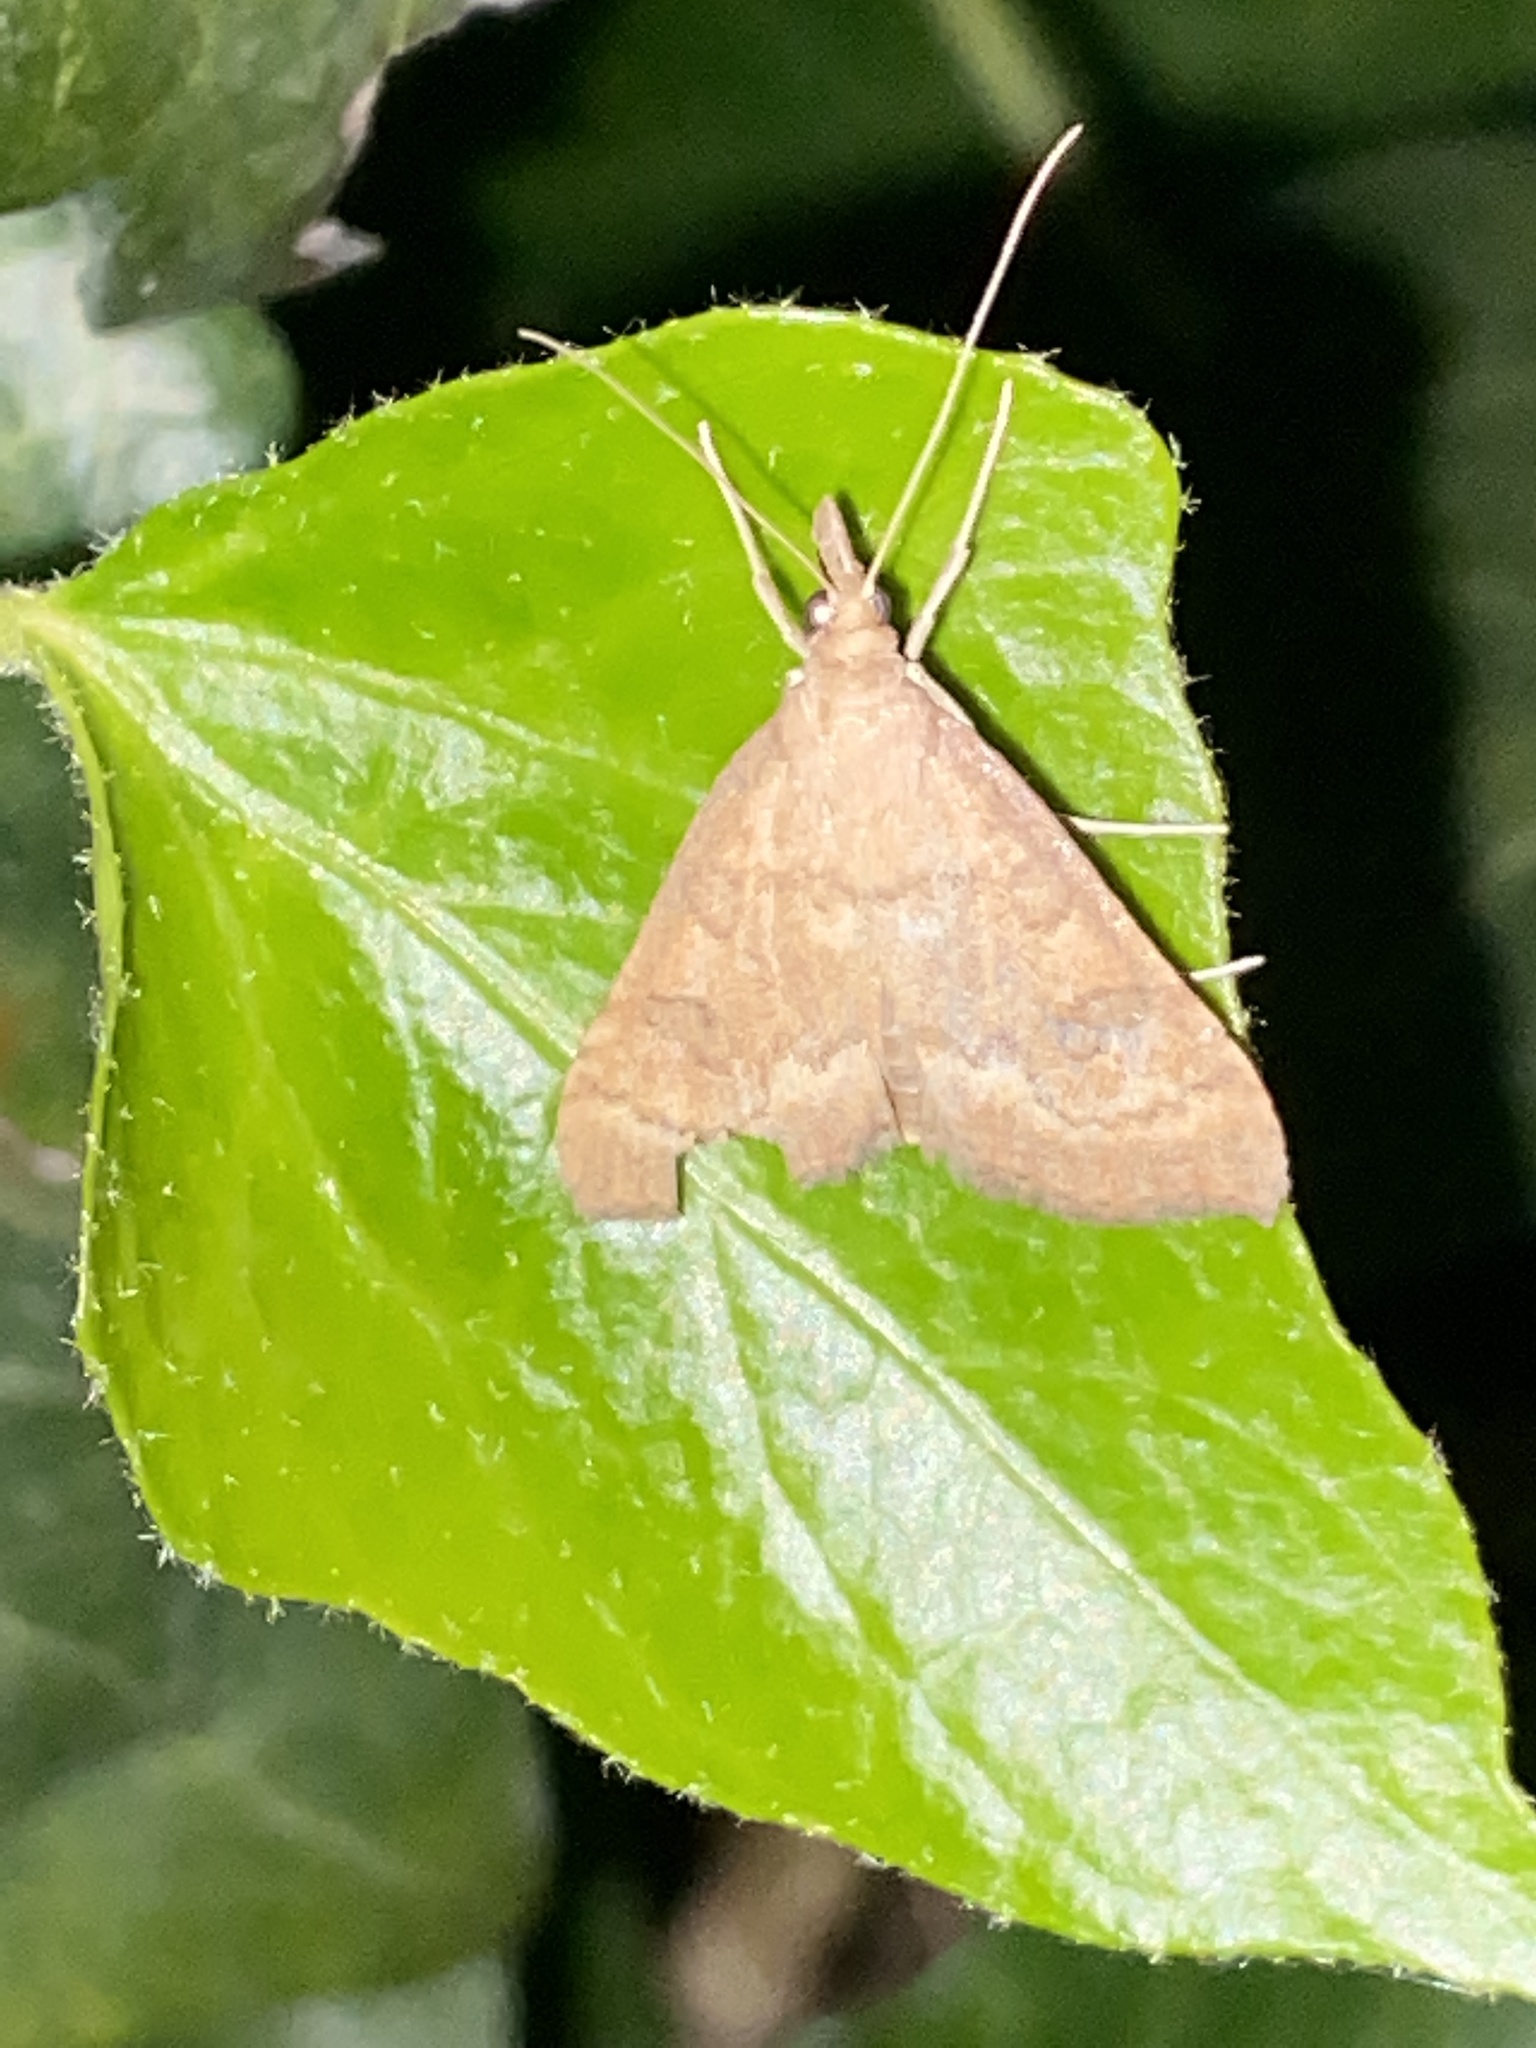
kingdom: Animalia
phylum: Arthropoda
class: Insecta
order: Lepidoptera
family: Crambidae
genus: Udea
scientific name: Udea fulvalis
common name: Fulvous pearl
